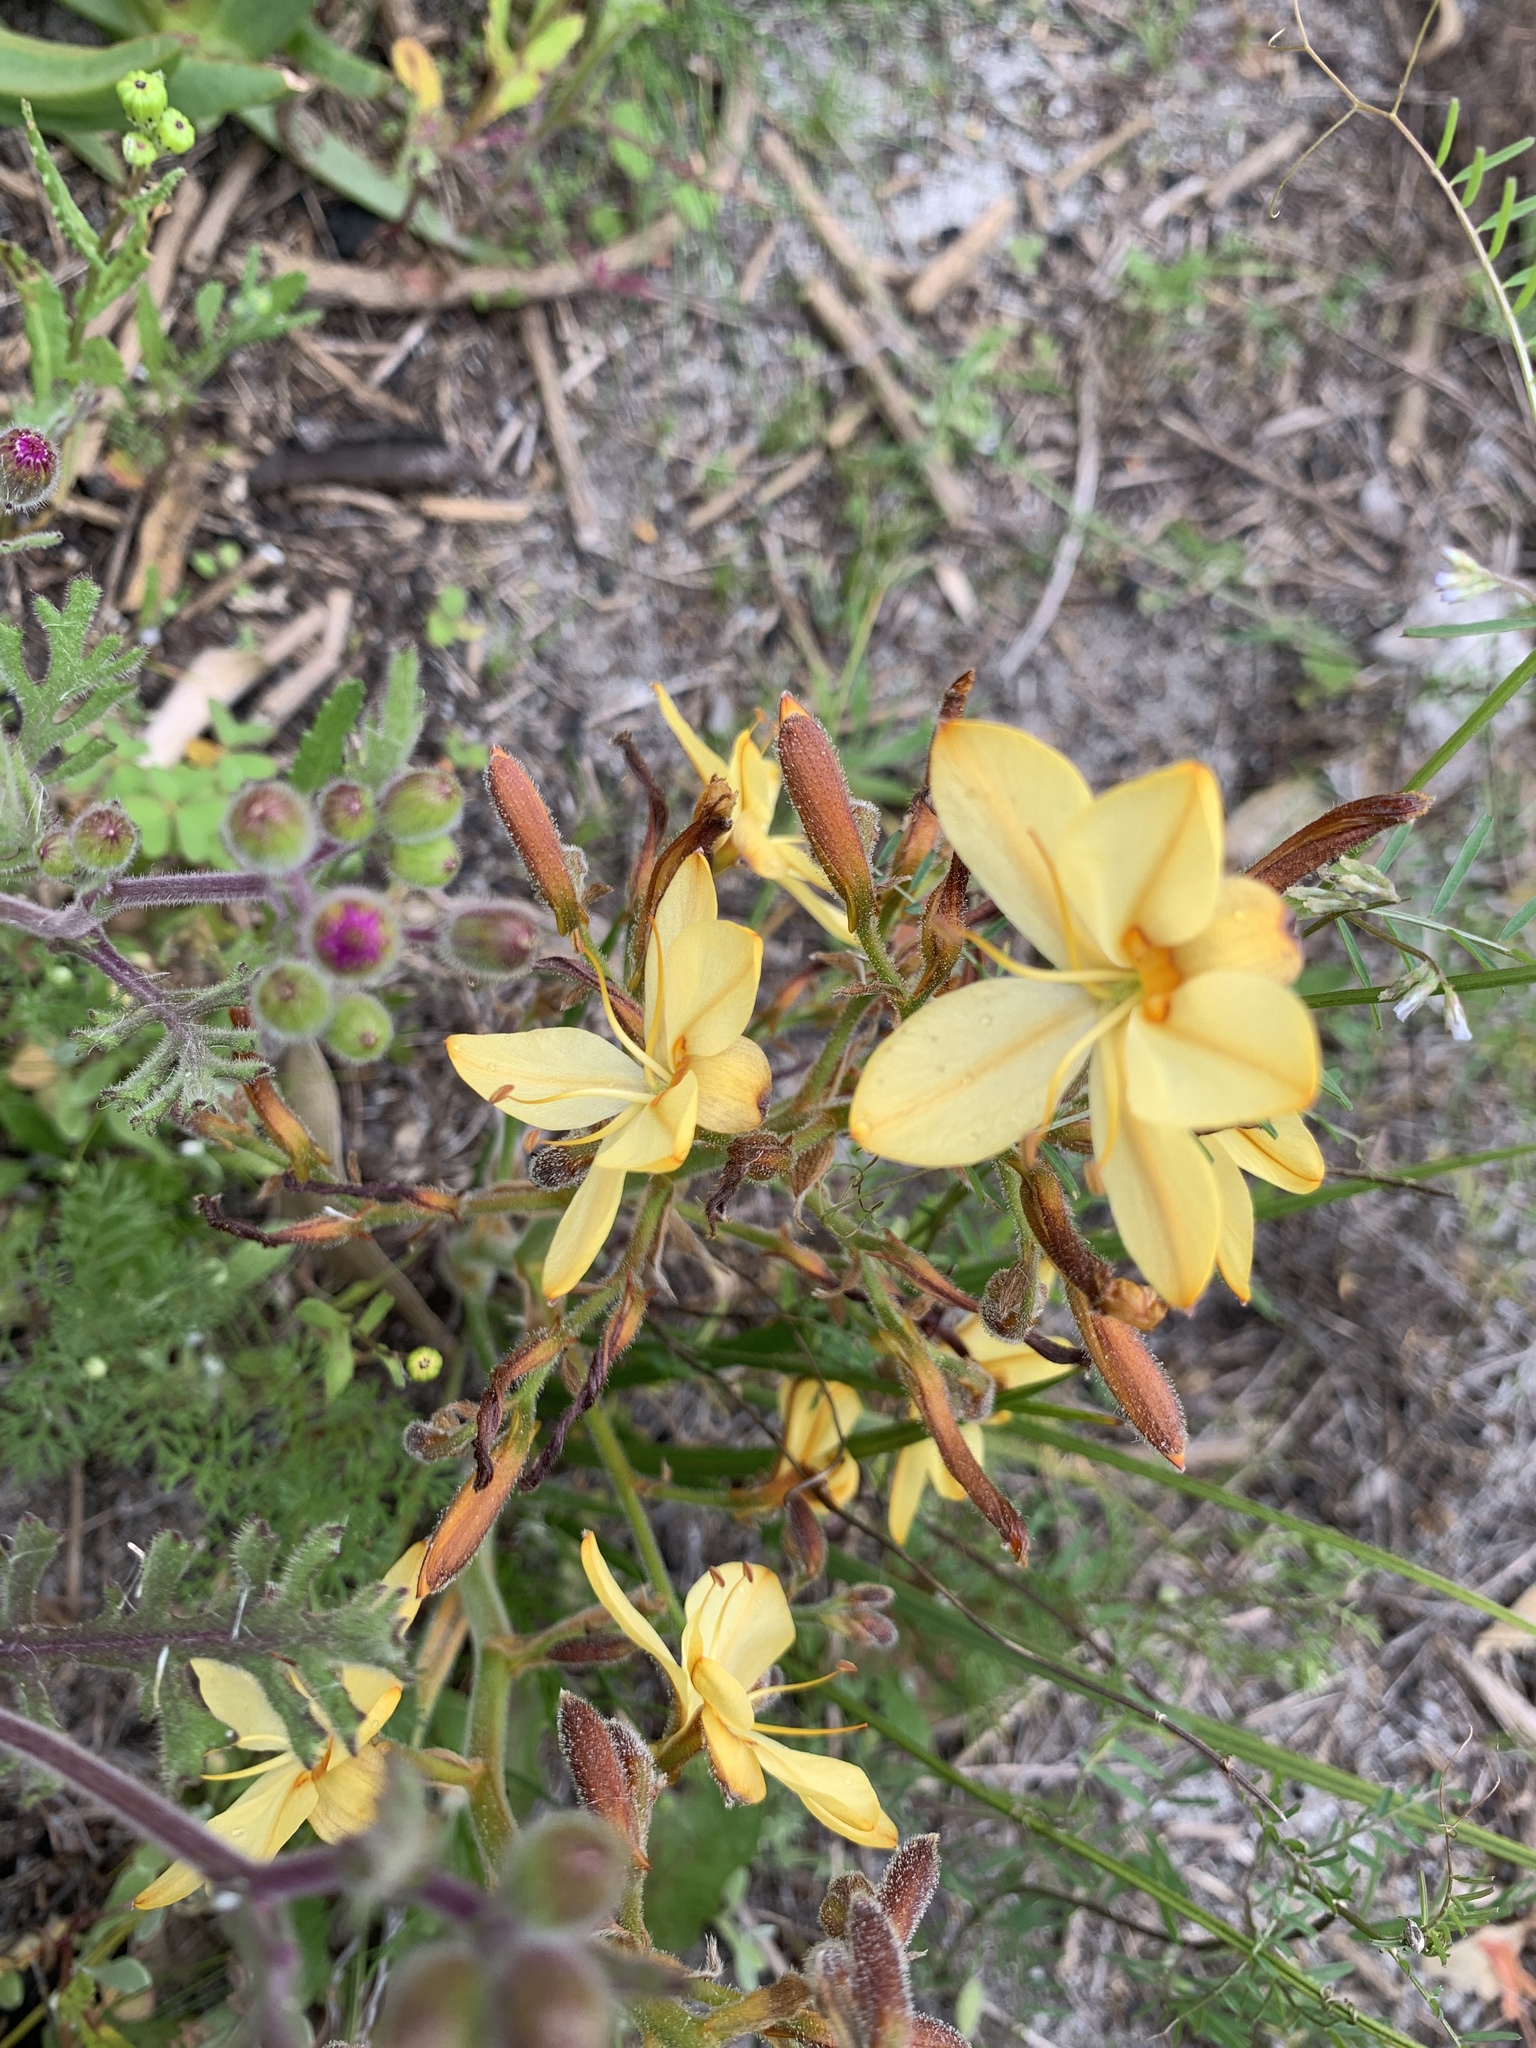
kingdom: Plantae
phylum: Tracheophyta
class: Liliopsida
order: Commelinales
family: Haemodoraceae
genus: Wachendorfia
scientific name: Wachendorfia paniculata
